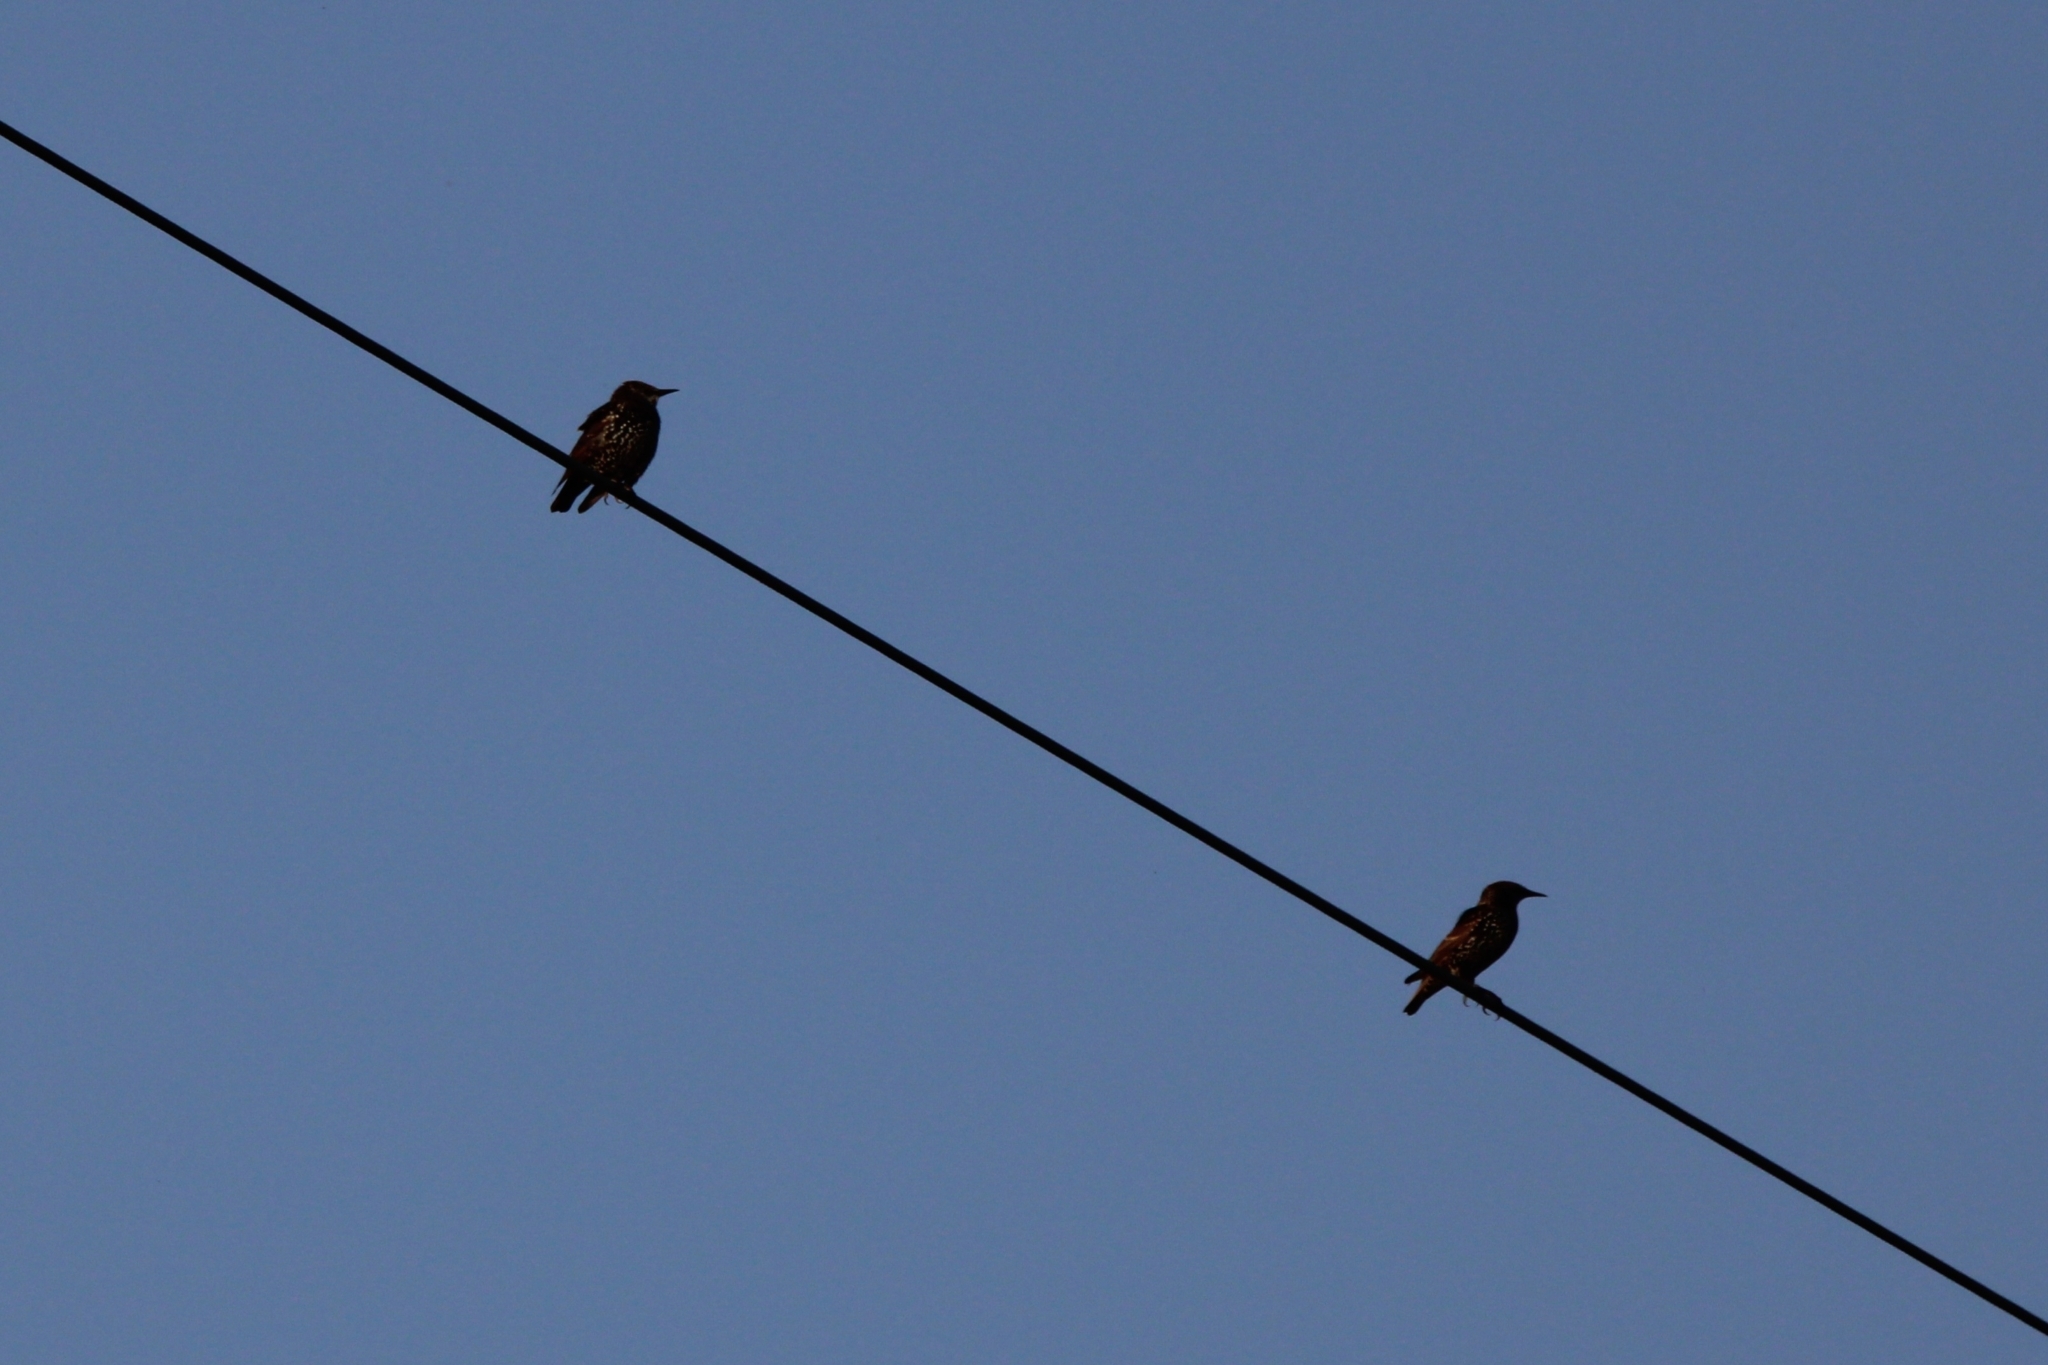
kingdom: Animalia
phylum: Chordata
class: Aves
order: Passeriformes
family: Sturnidae
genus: Sturnus
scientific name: Sturnus vulgaris
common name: Common starling
